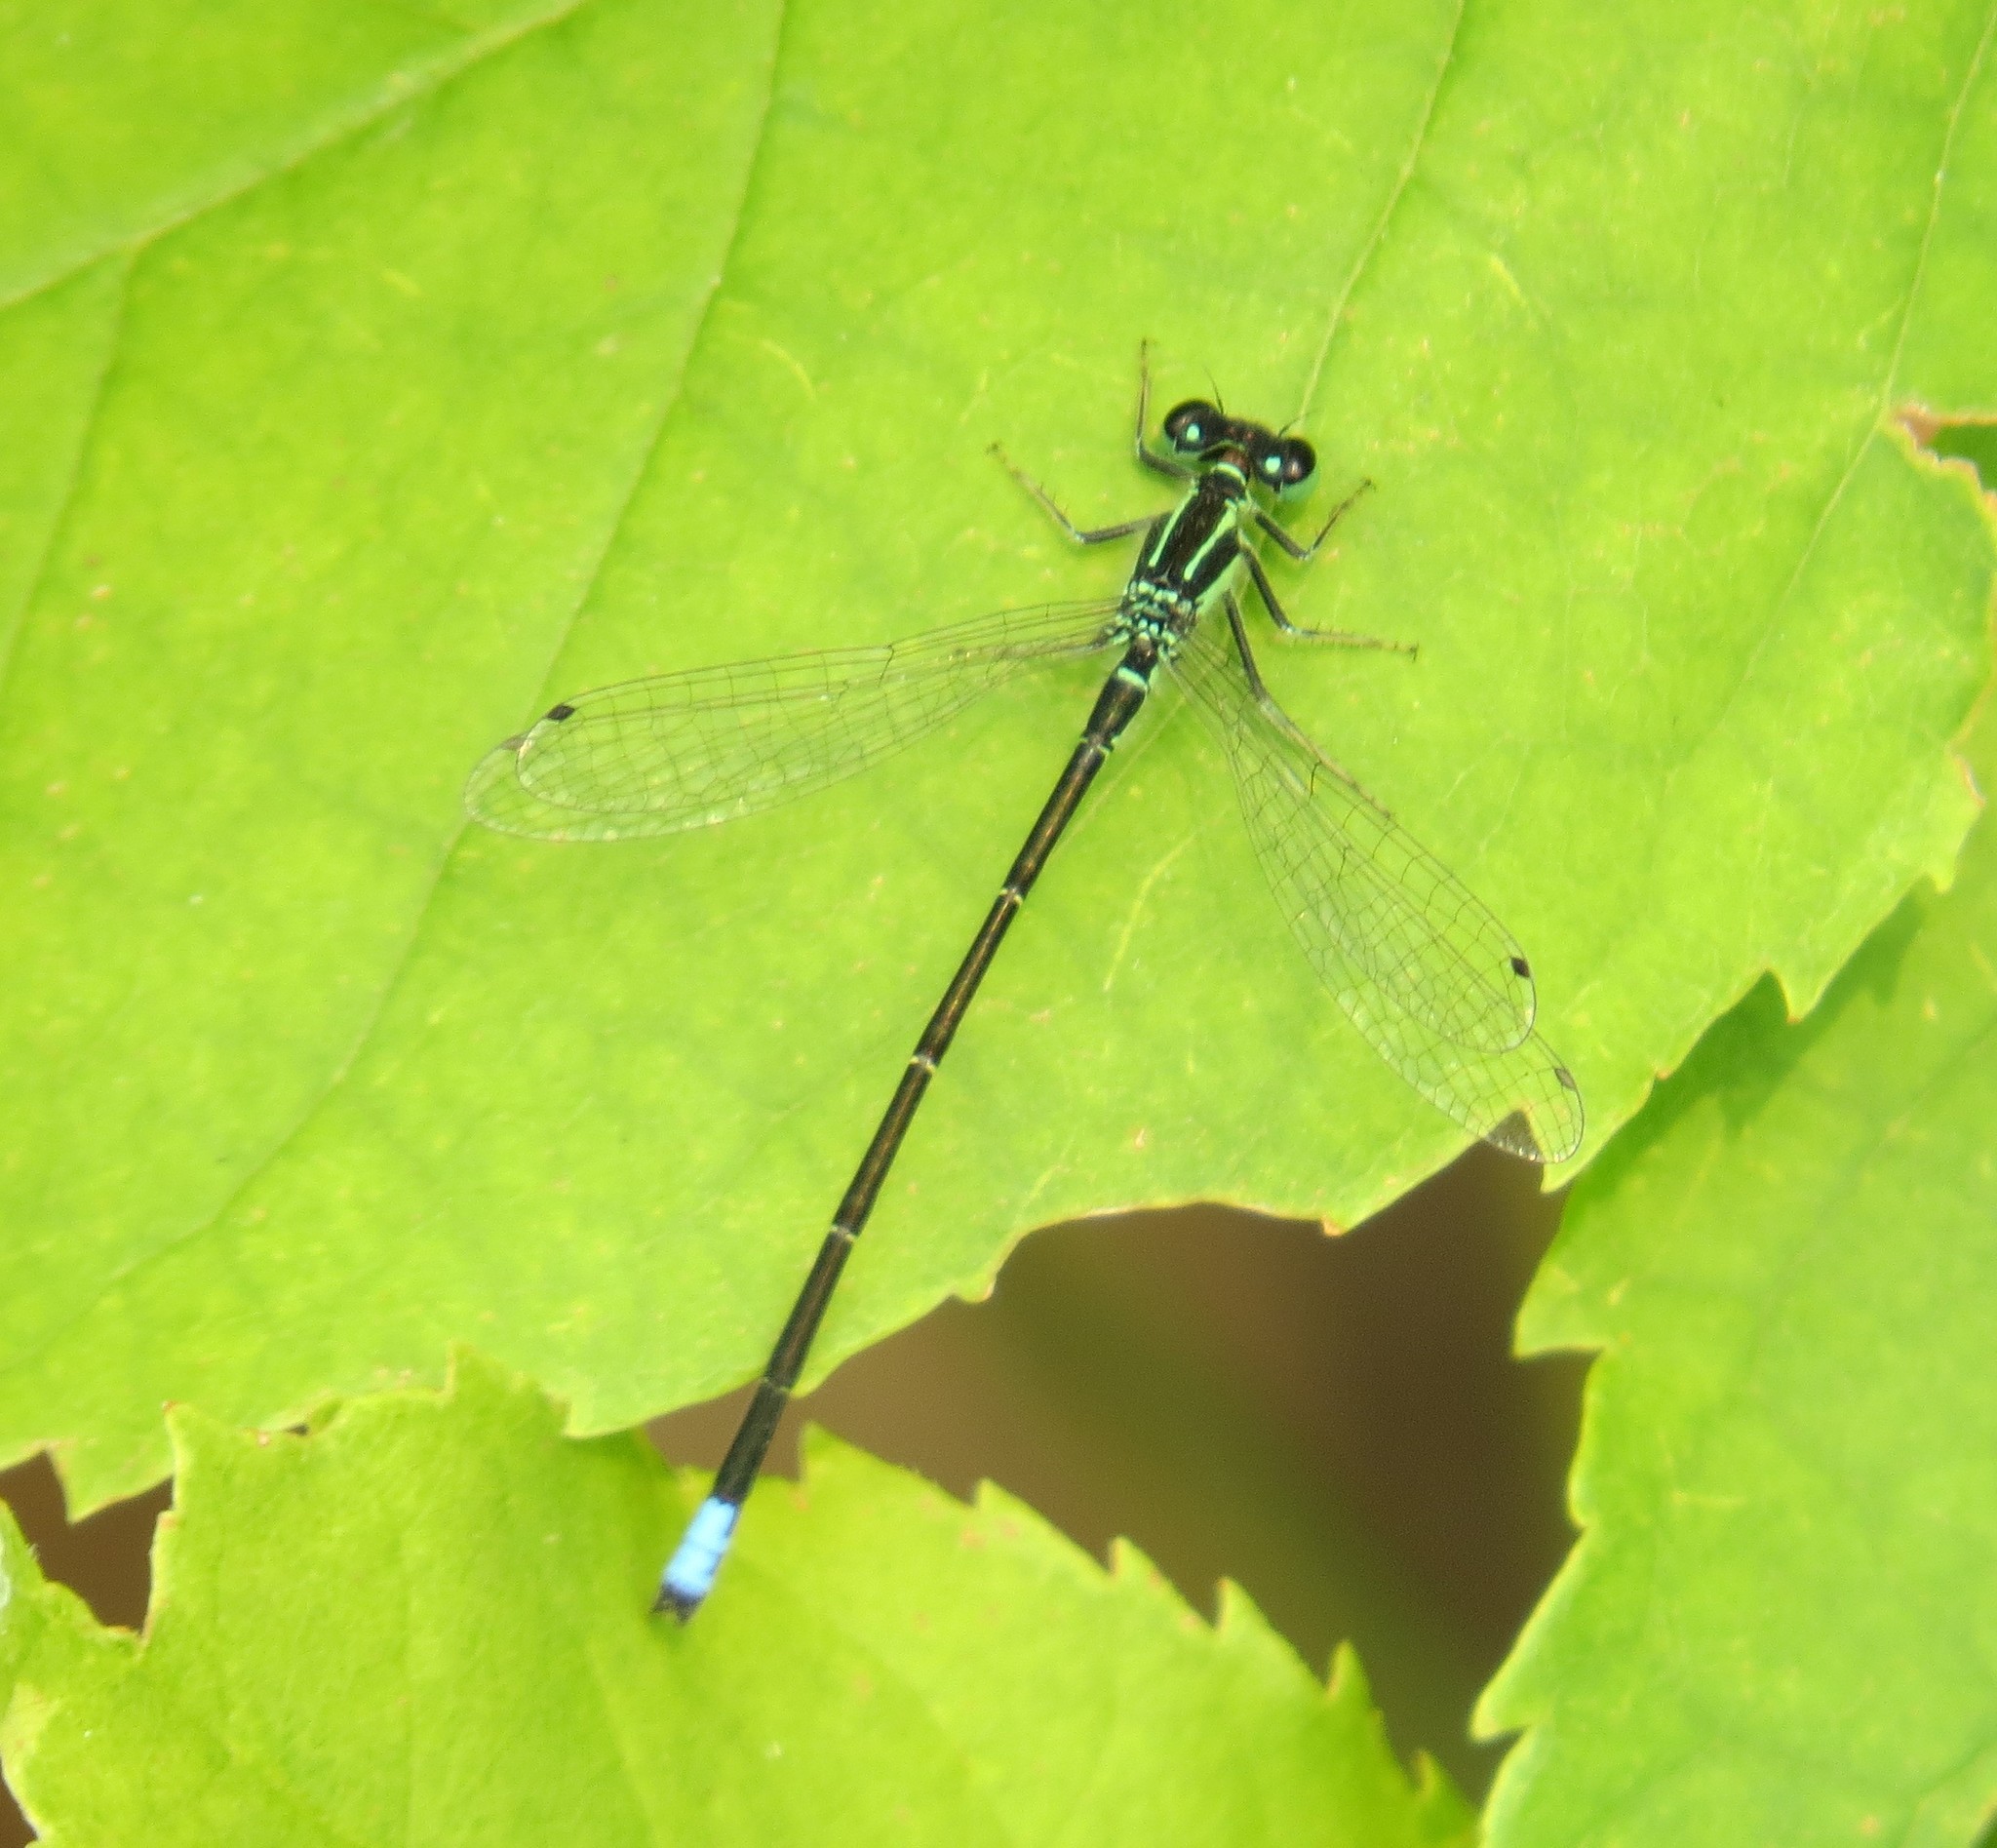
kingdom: Animalia
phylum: Arthropoda
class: Insecta
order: Odonata
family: Coenagrionidae
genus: Ischnura
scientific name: Ischnura verticalis
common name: Eastern forktail
